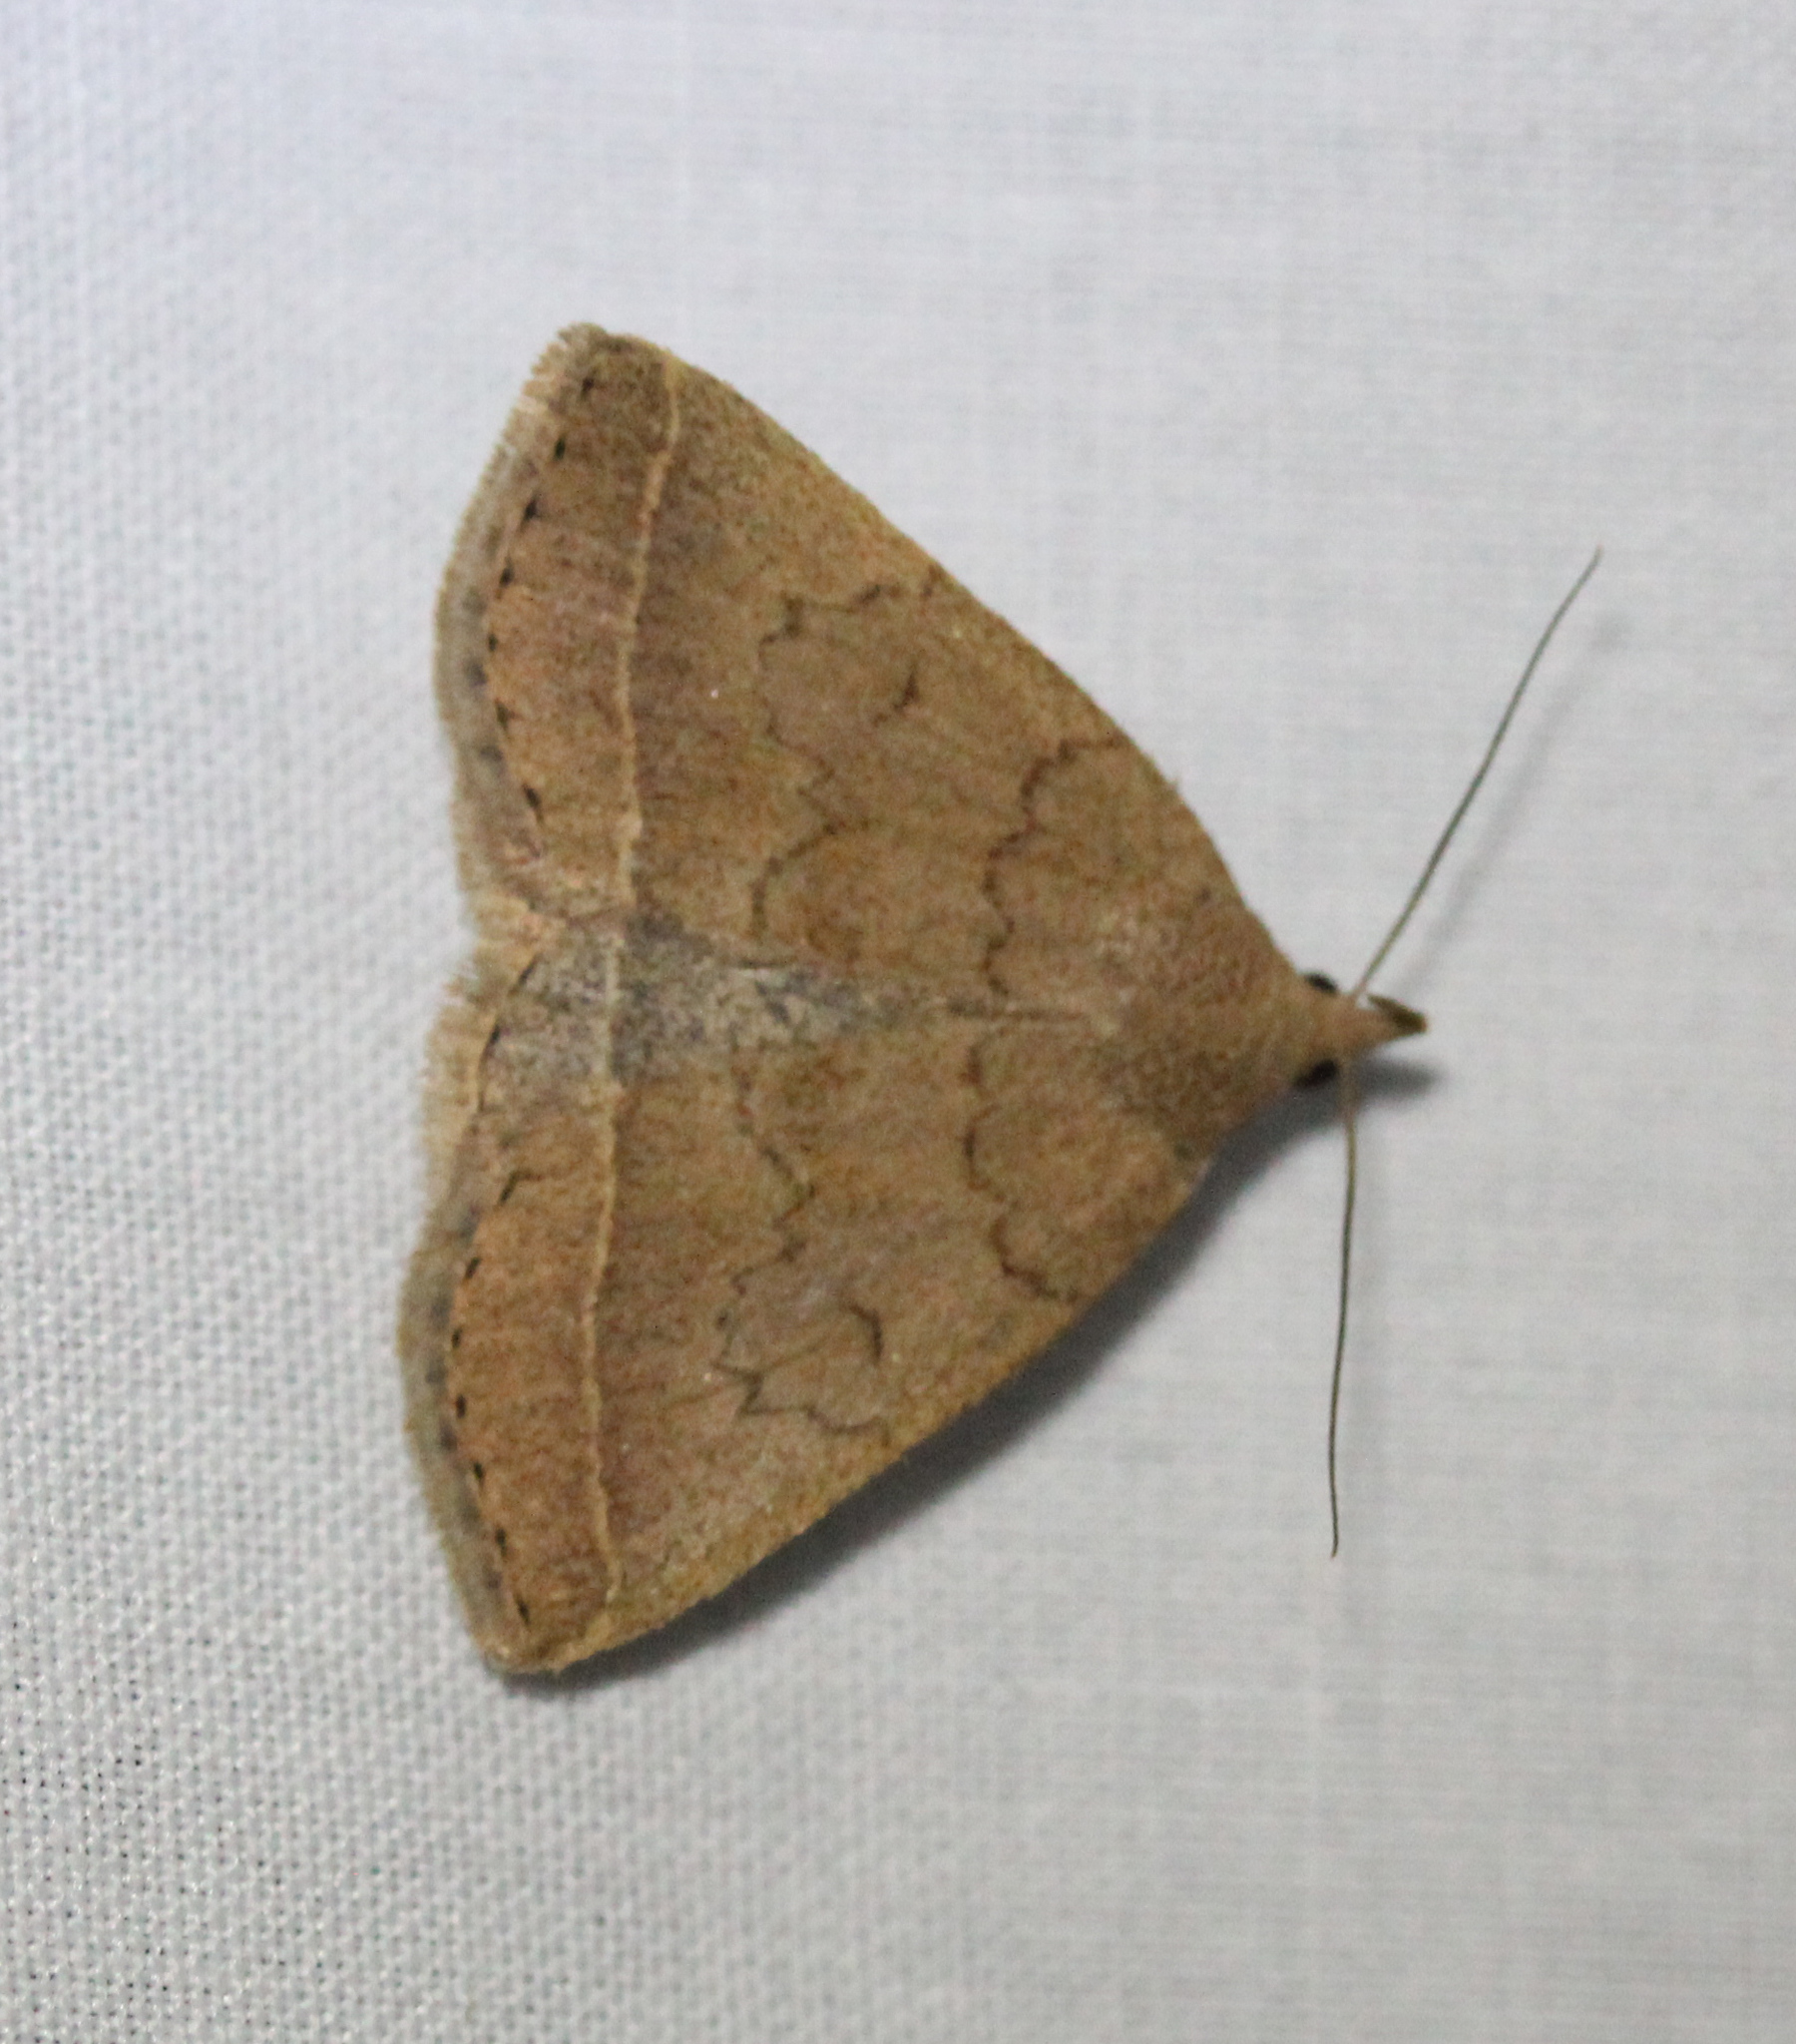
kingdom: Animalia
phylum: Arthropoda
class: Insecta
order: Lepidoptera
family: Erebidae
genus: Zanclognatha
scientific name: Zanclognatha jacchusalis
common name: Yellowish zanclognatha
